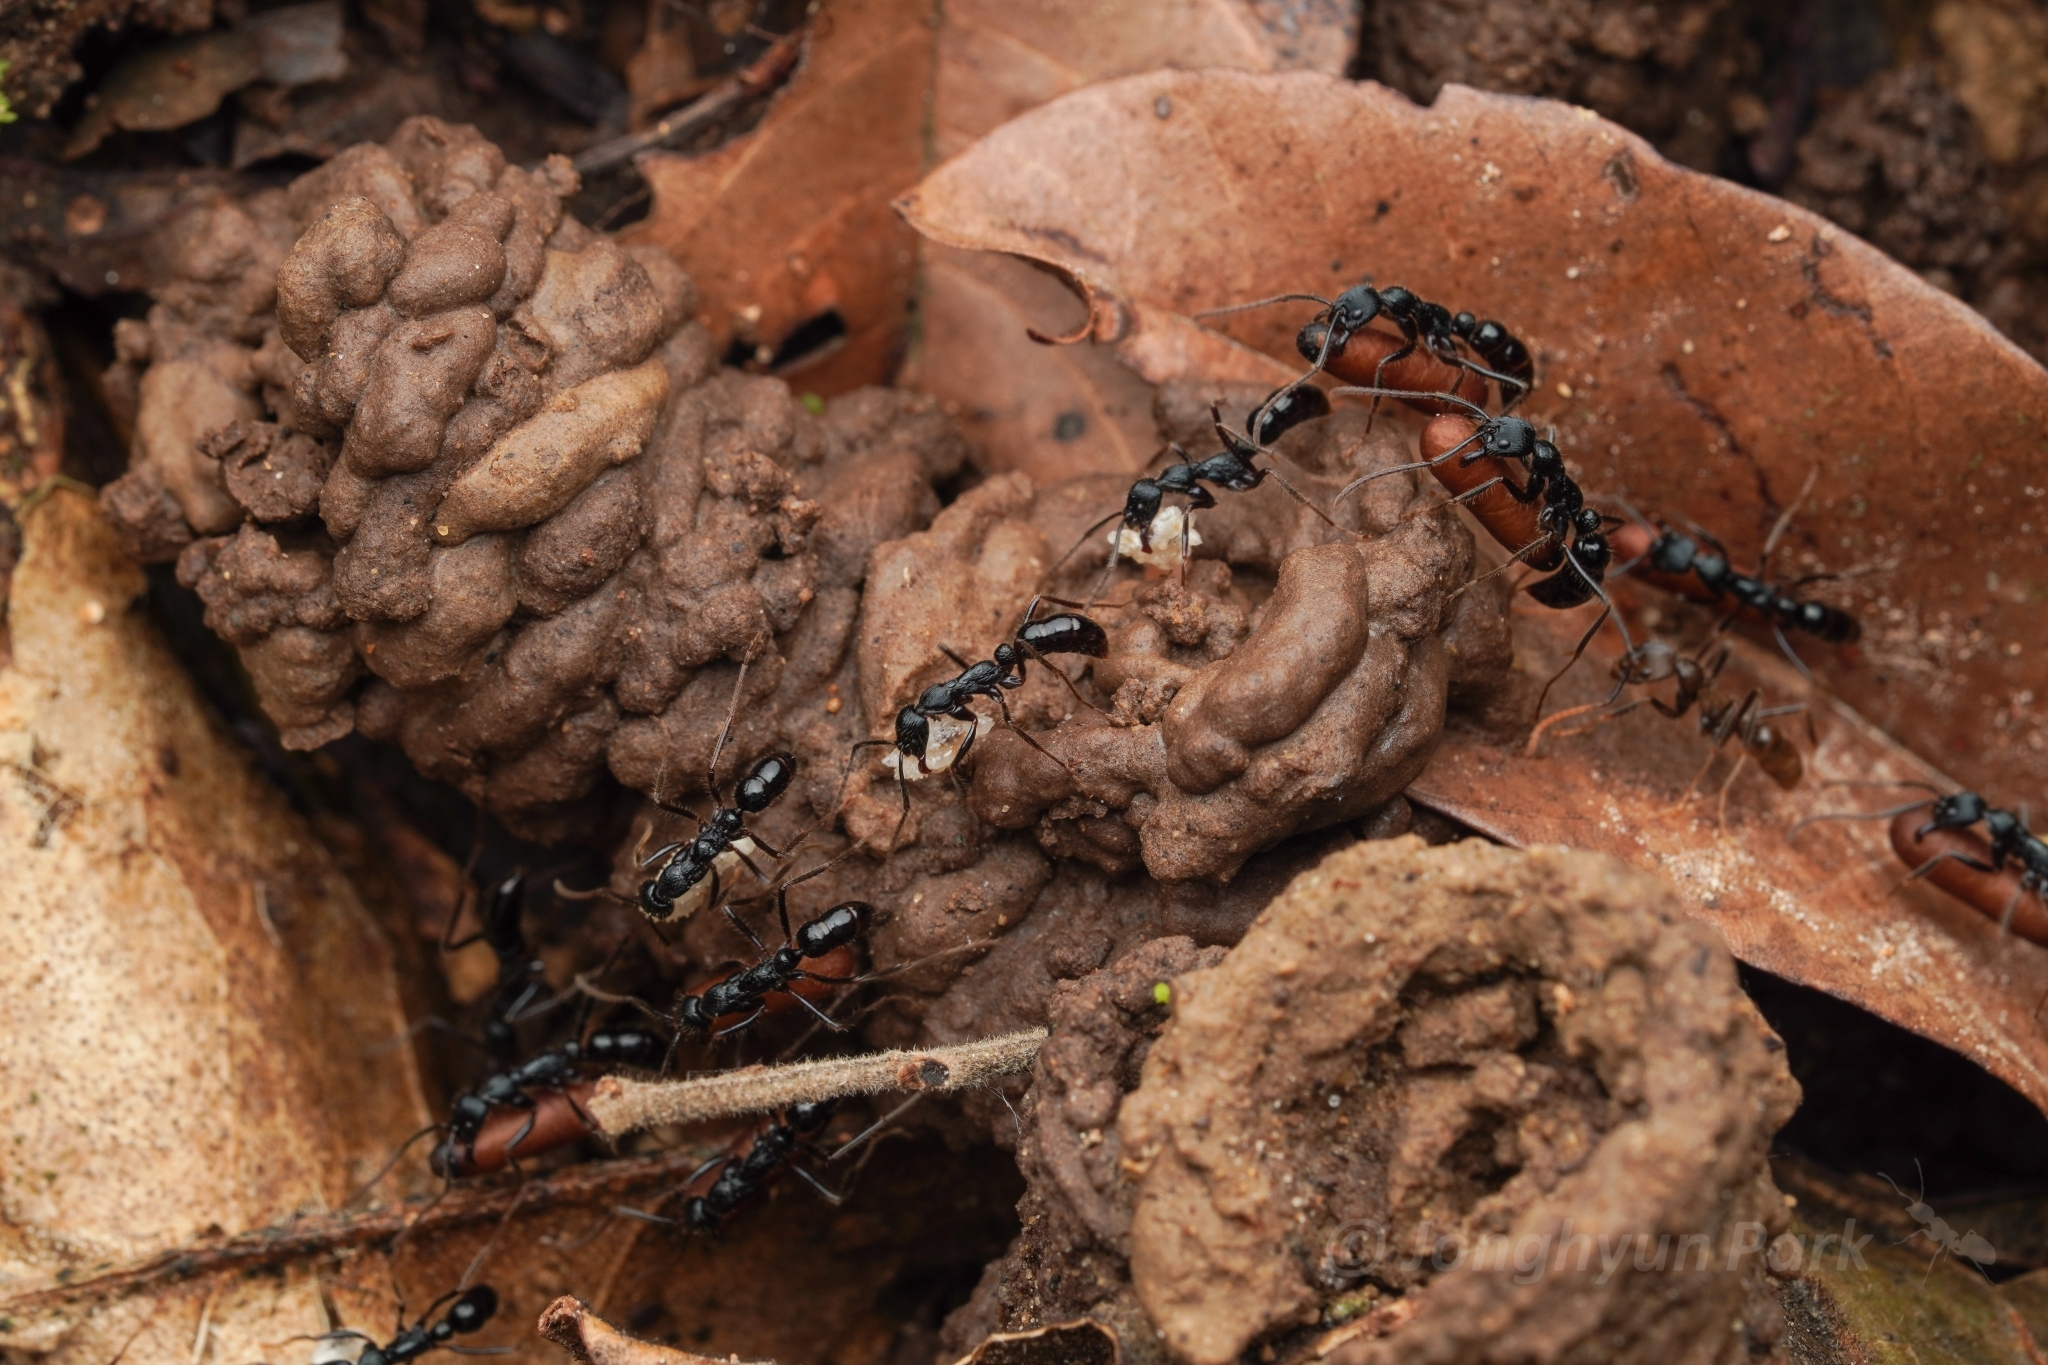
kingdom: Animalia
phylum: Arthropoda
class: Insecta
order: Hymenoptera
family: Formicidae
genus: Leptogenys
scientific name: Leptogenys diminuta
